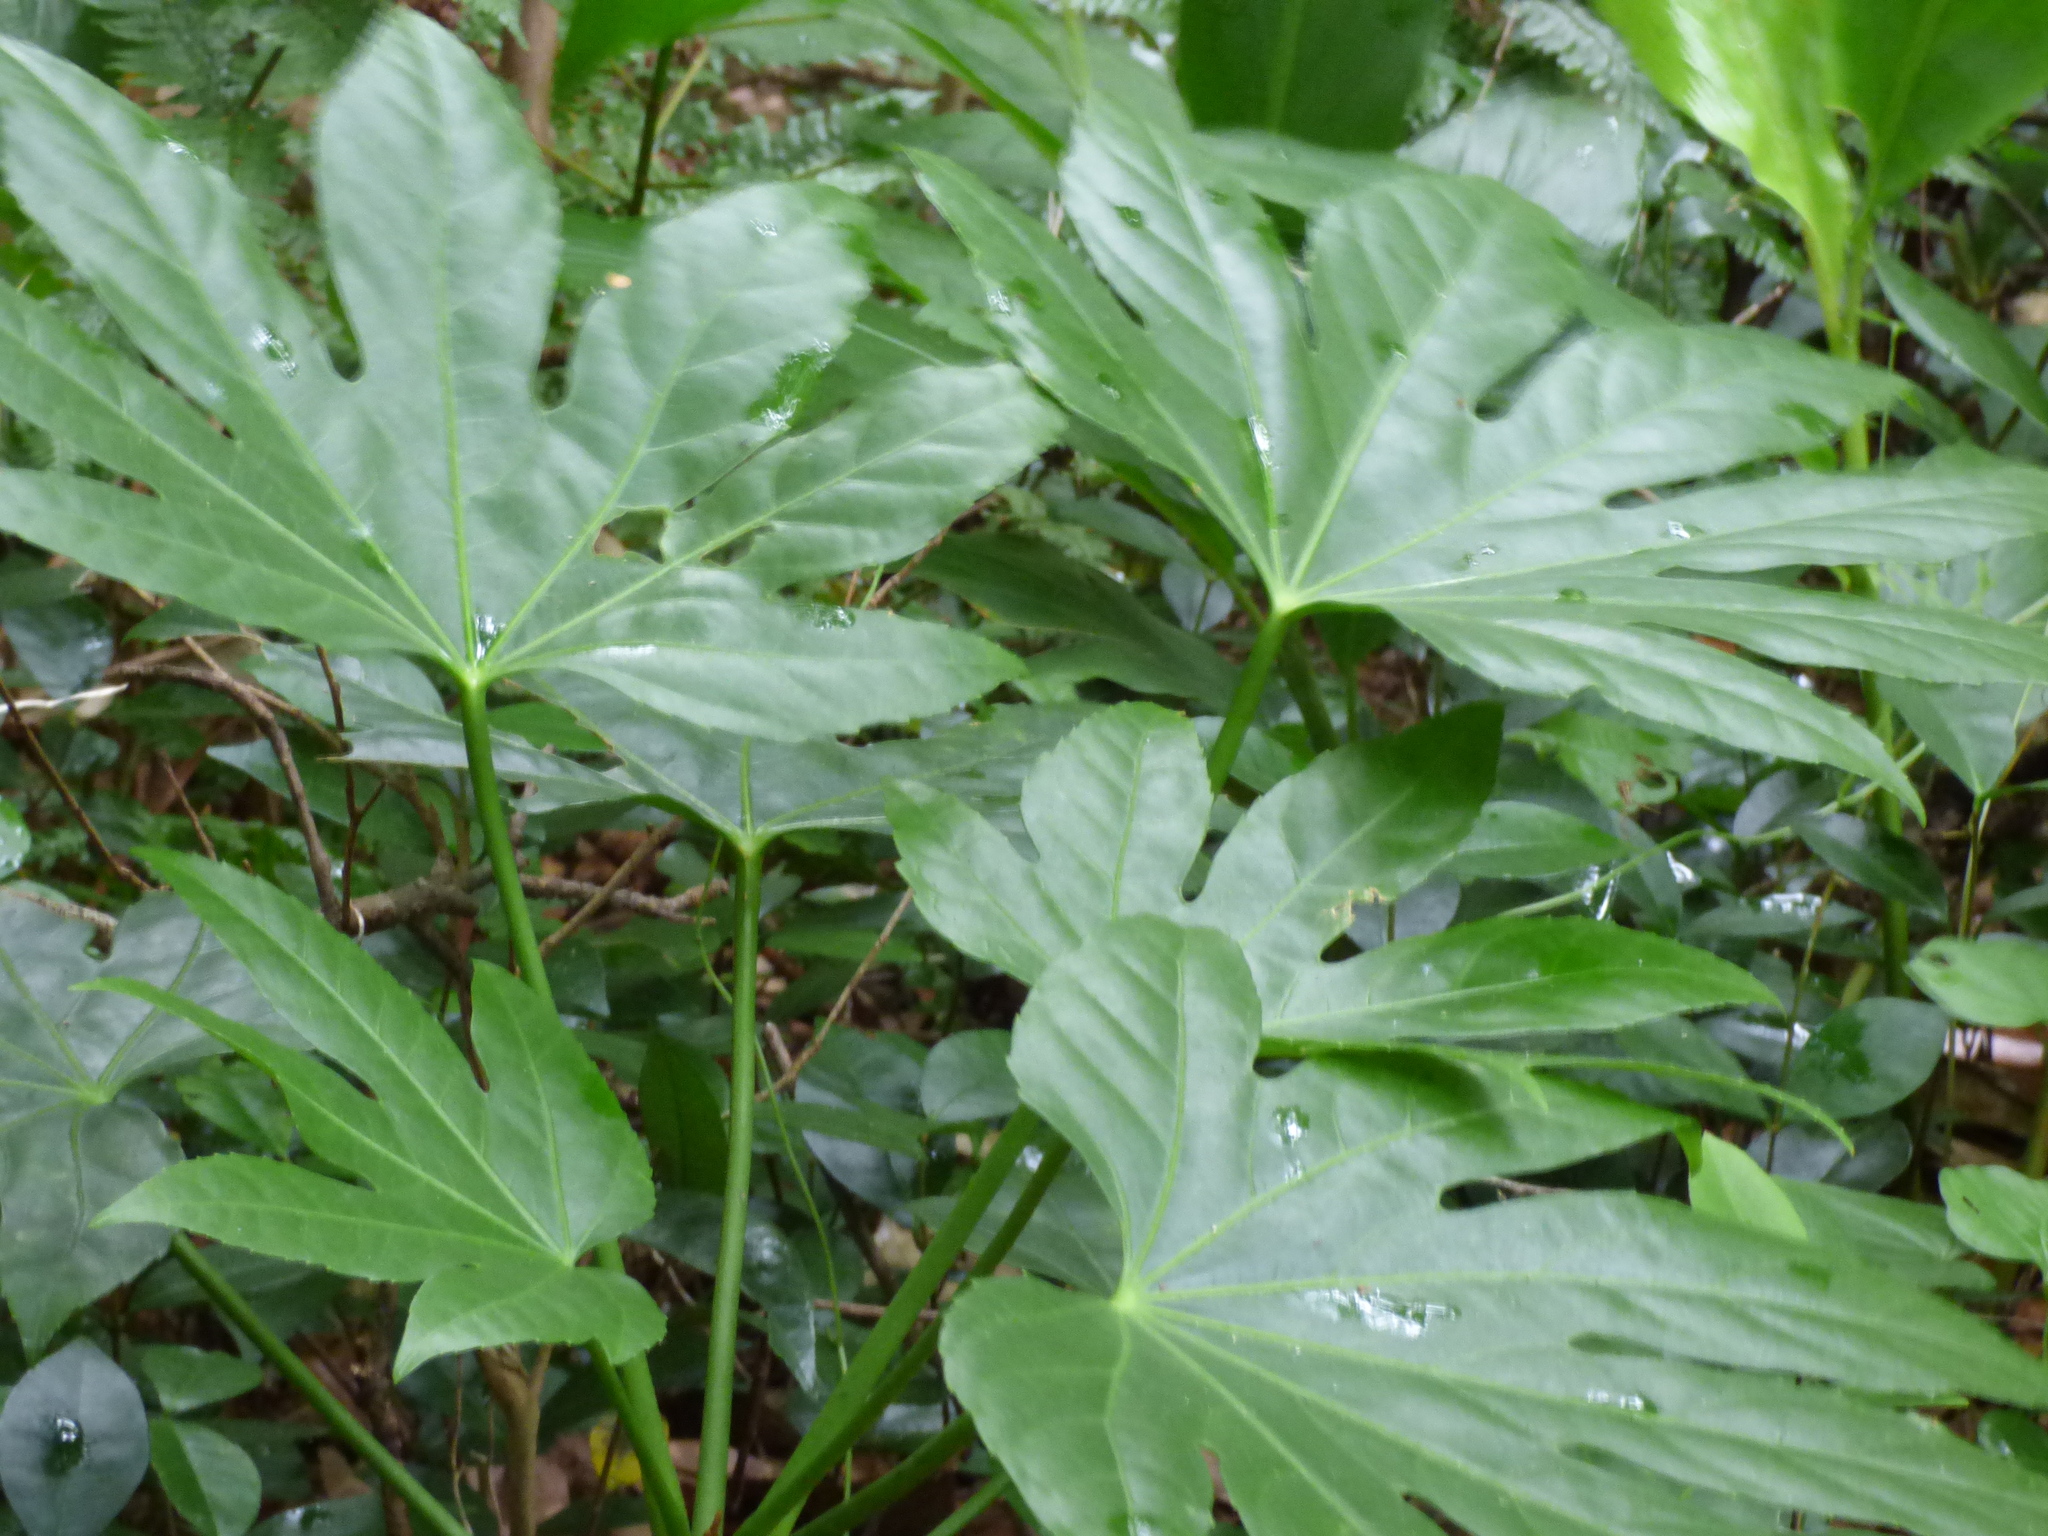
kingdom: Plantae
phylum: Tracheophyta
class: Magnoliopsida
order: Apiales
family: Araliaceae
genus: Fatsia
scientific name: Fatsia japonica
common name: Fatsia
